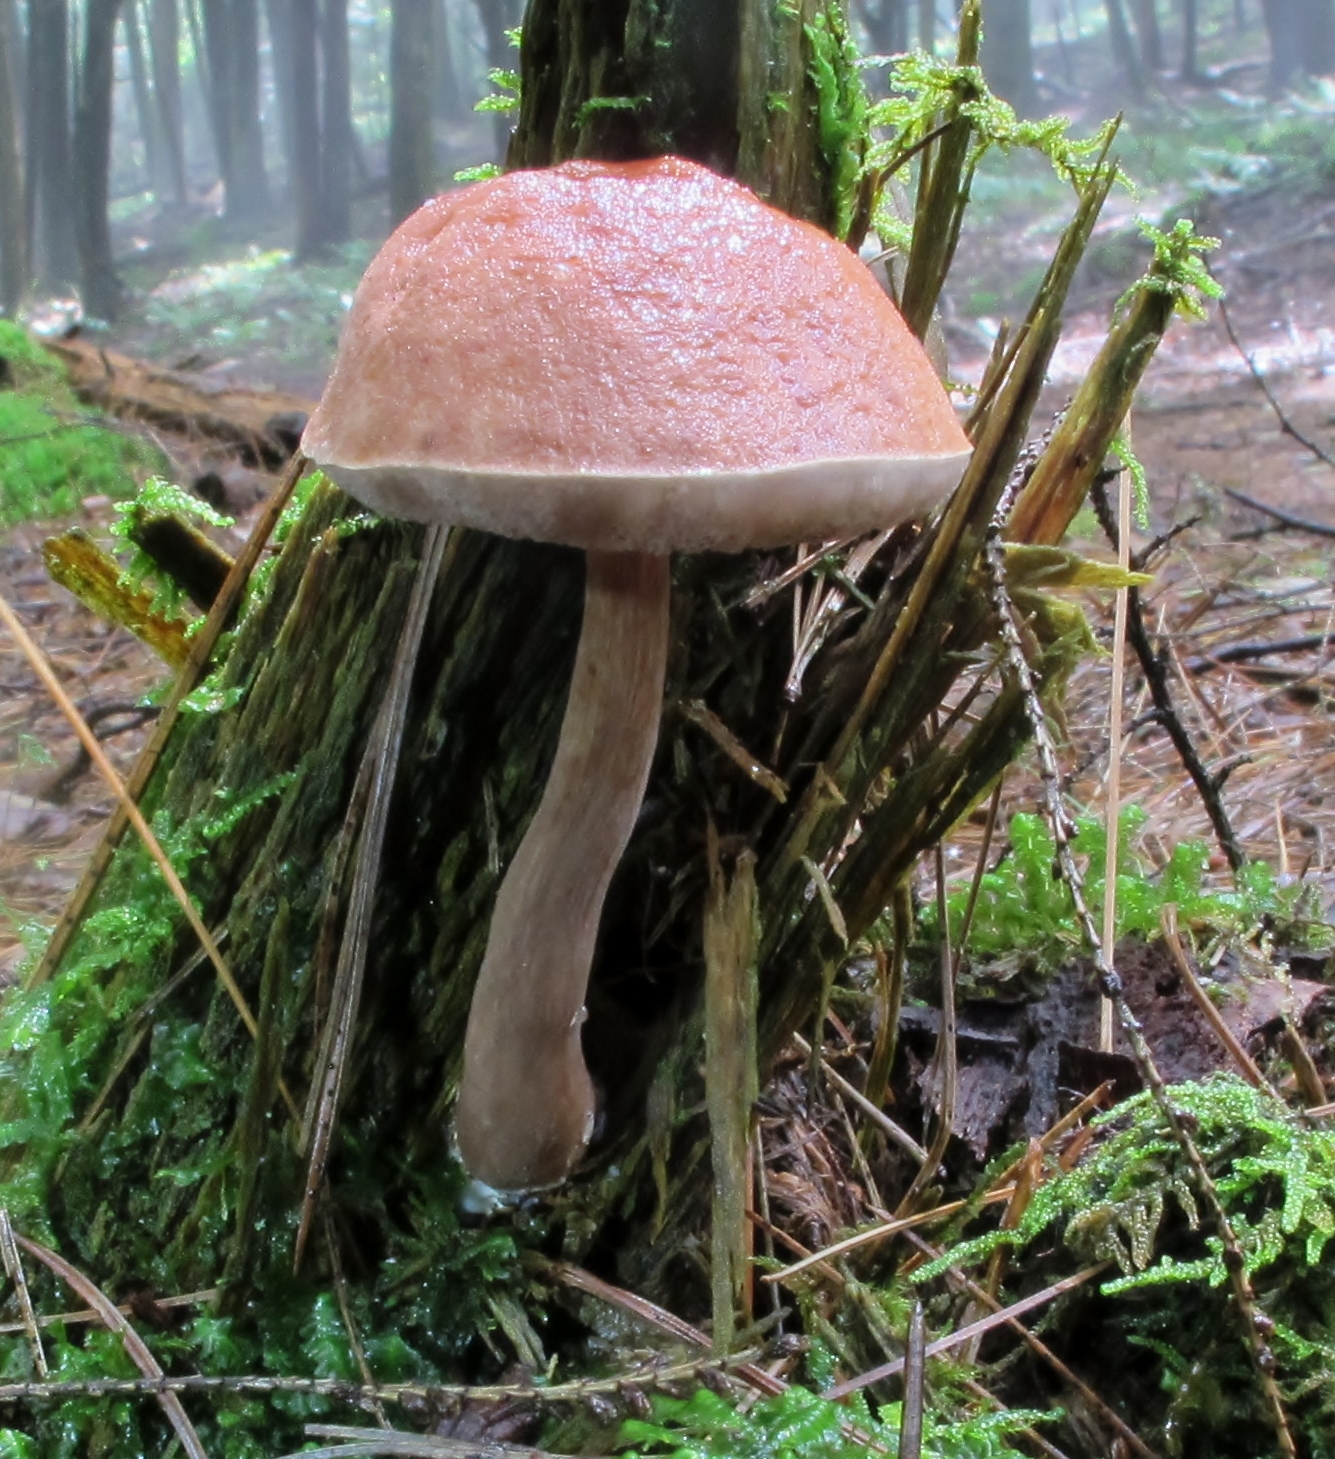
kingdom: Fungi
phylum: Basidiomycota
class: Agaricomycetes
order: Boletales
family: Boletaceae
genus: Austroboletus
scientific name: Austroboletus gracilis
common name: Graceful bolete
